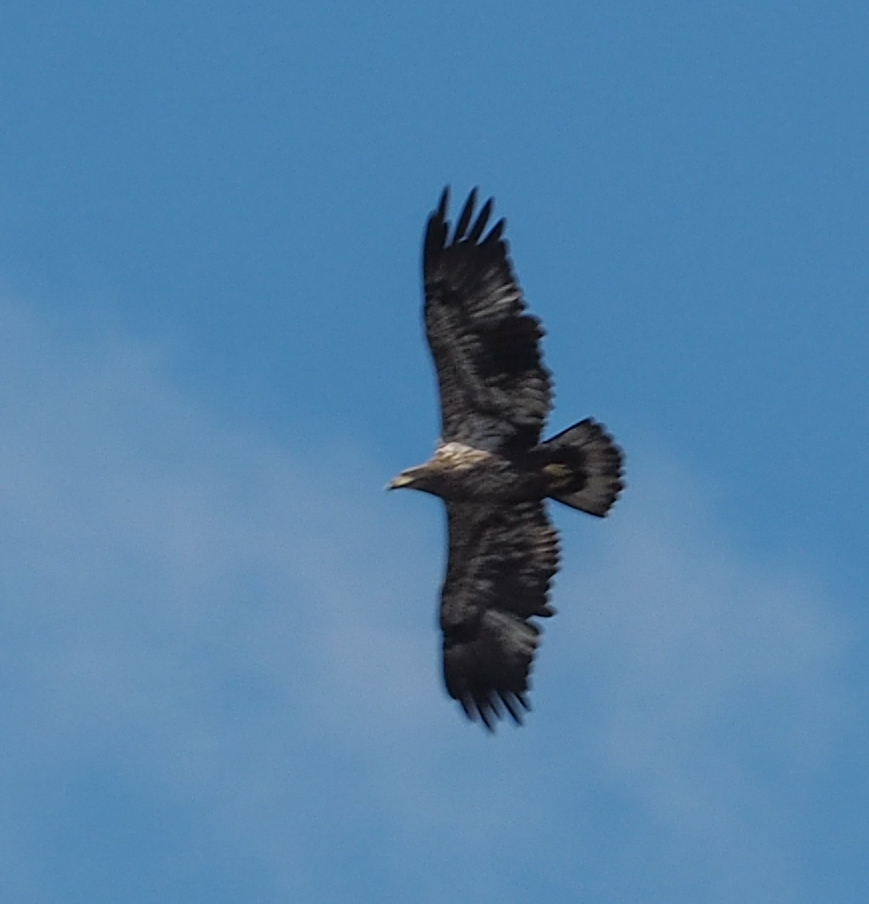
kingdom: Animalia
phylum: Chordata
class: Aves
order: Accipitriformes
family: Accipitridae
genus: Haliaeetus
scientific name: Haliaeetus leucocephalus
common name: Bald eagle
